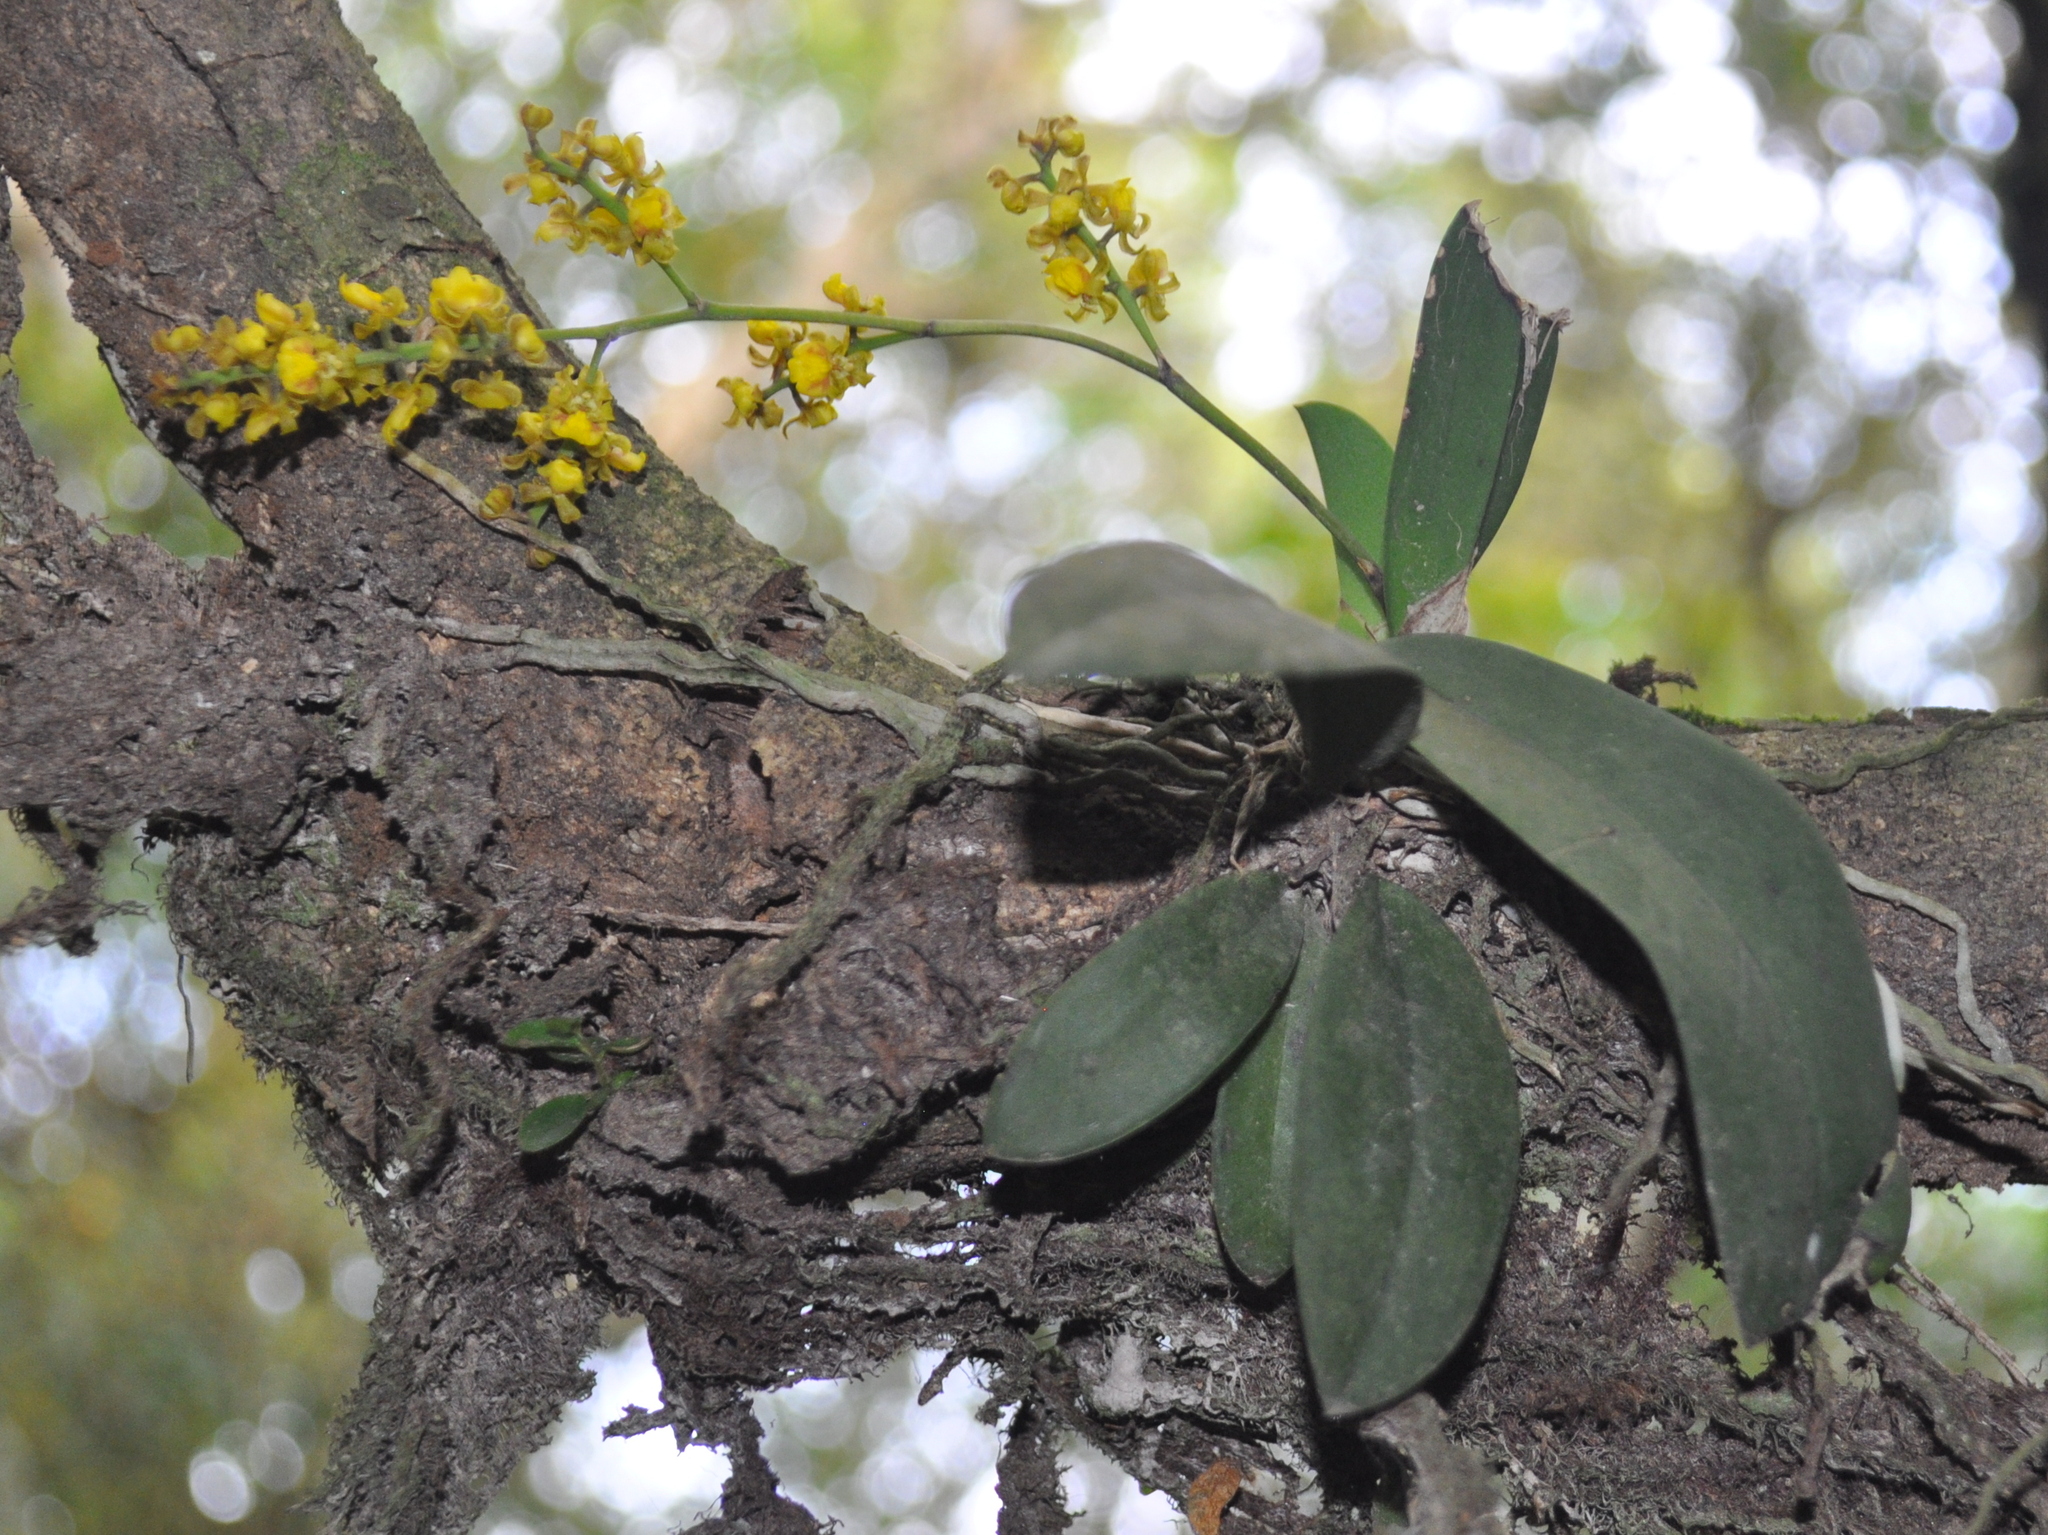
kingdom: Plantae
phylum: Tracheophyta
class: Liliopsida
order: Asparagales
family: Orchidaceae
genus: Trichocentrum
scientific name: Trichocentrum pumilum
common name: Mule-ear orchid
